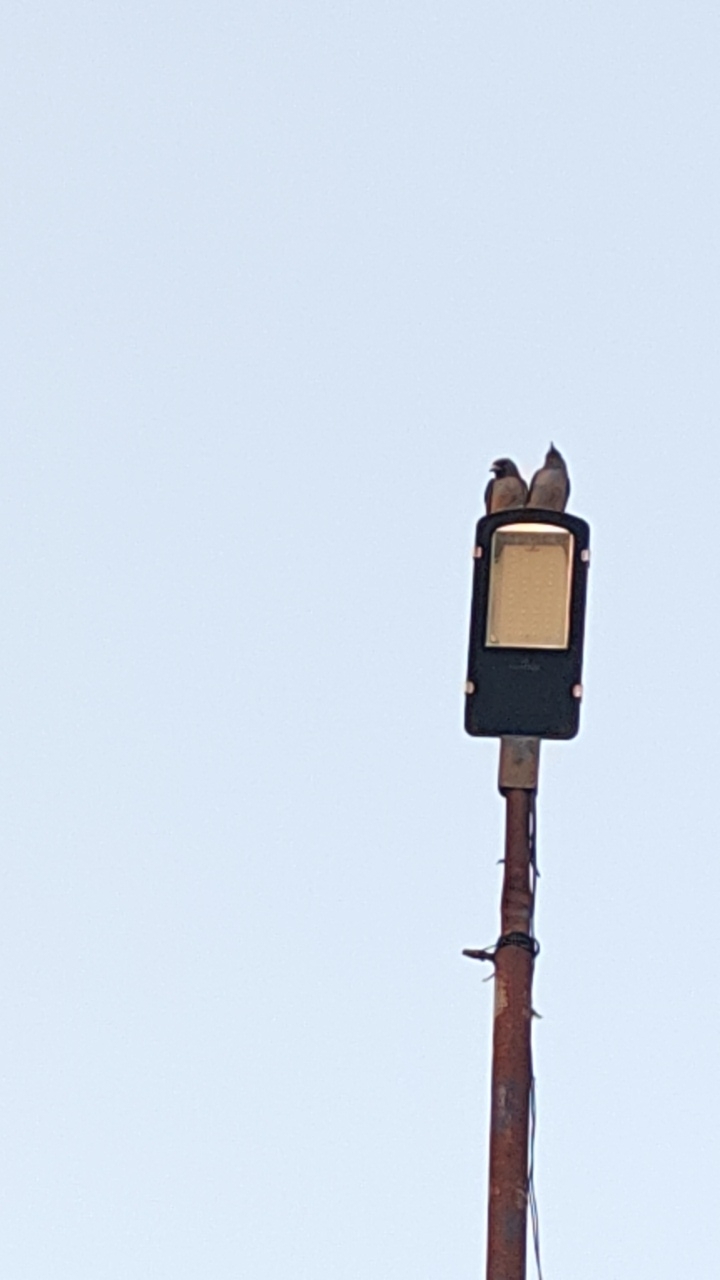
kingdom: Animalia
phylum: Chordata
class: Aves
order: Passeriformes
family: Artamidae
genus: Artamus
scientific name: Artamus fuscus
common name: Ashy woodswallow
